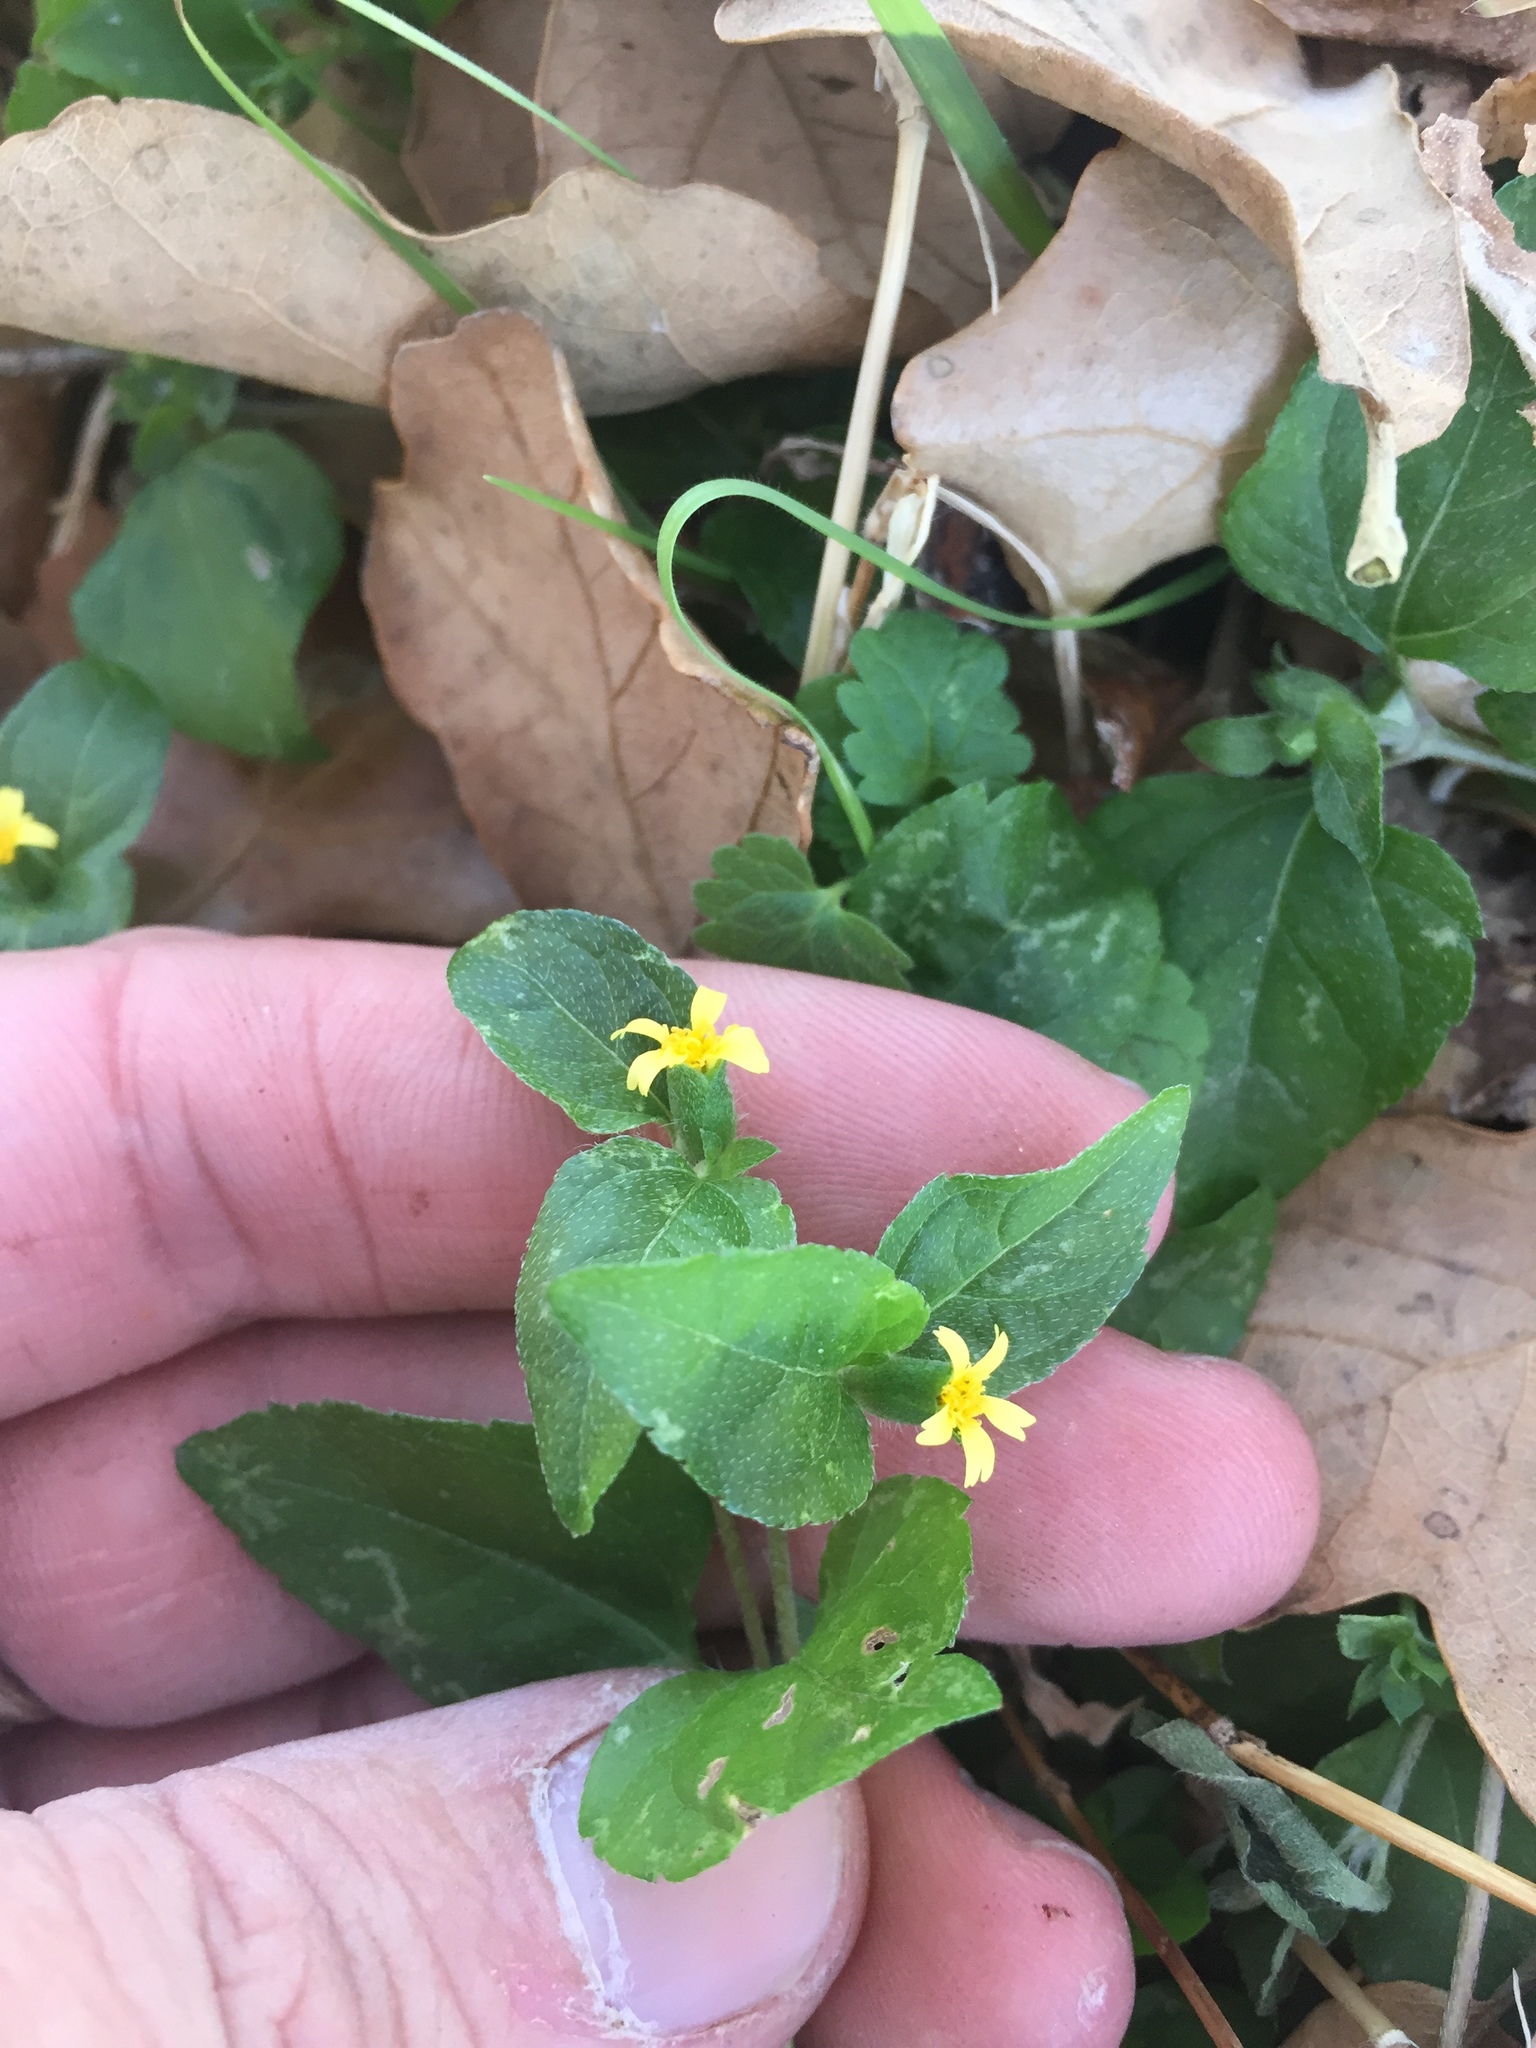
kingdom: Plantae
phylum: Tracheophyta
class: Magnoliopsida
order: Asterales
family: Asteraceae
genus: Calyptocarpus
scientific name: Calyptocarpus vialis
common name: Straggler daisy
